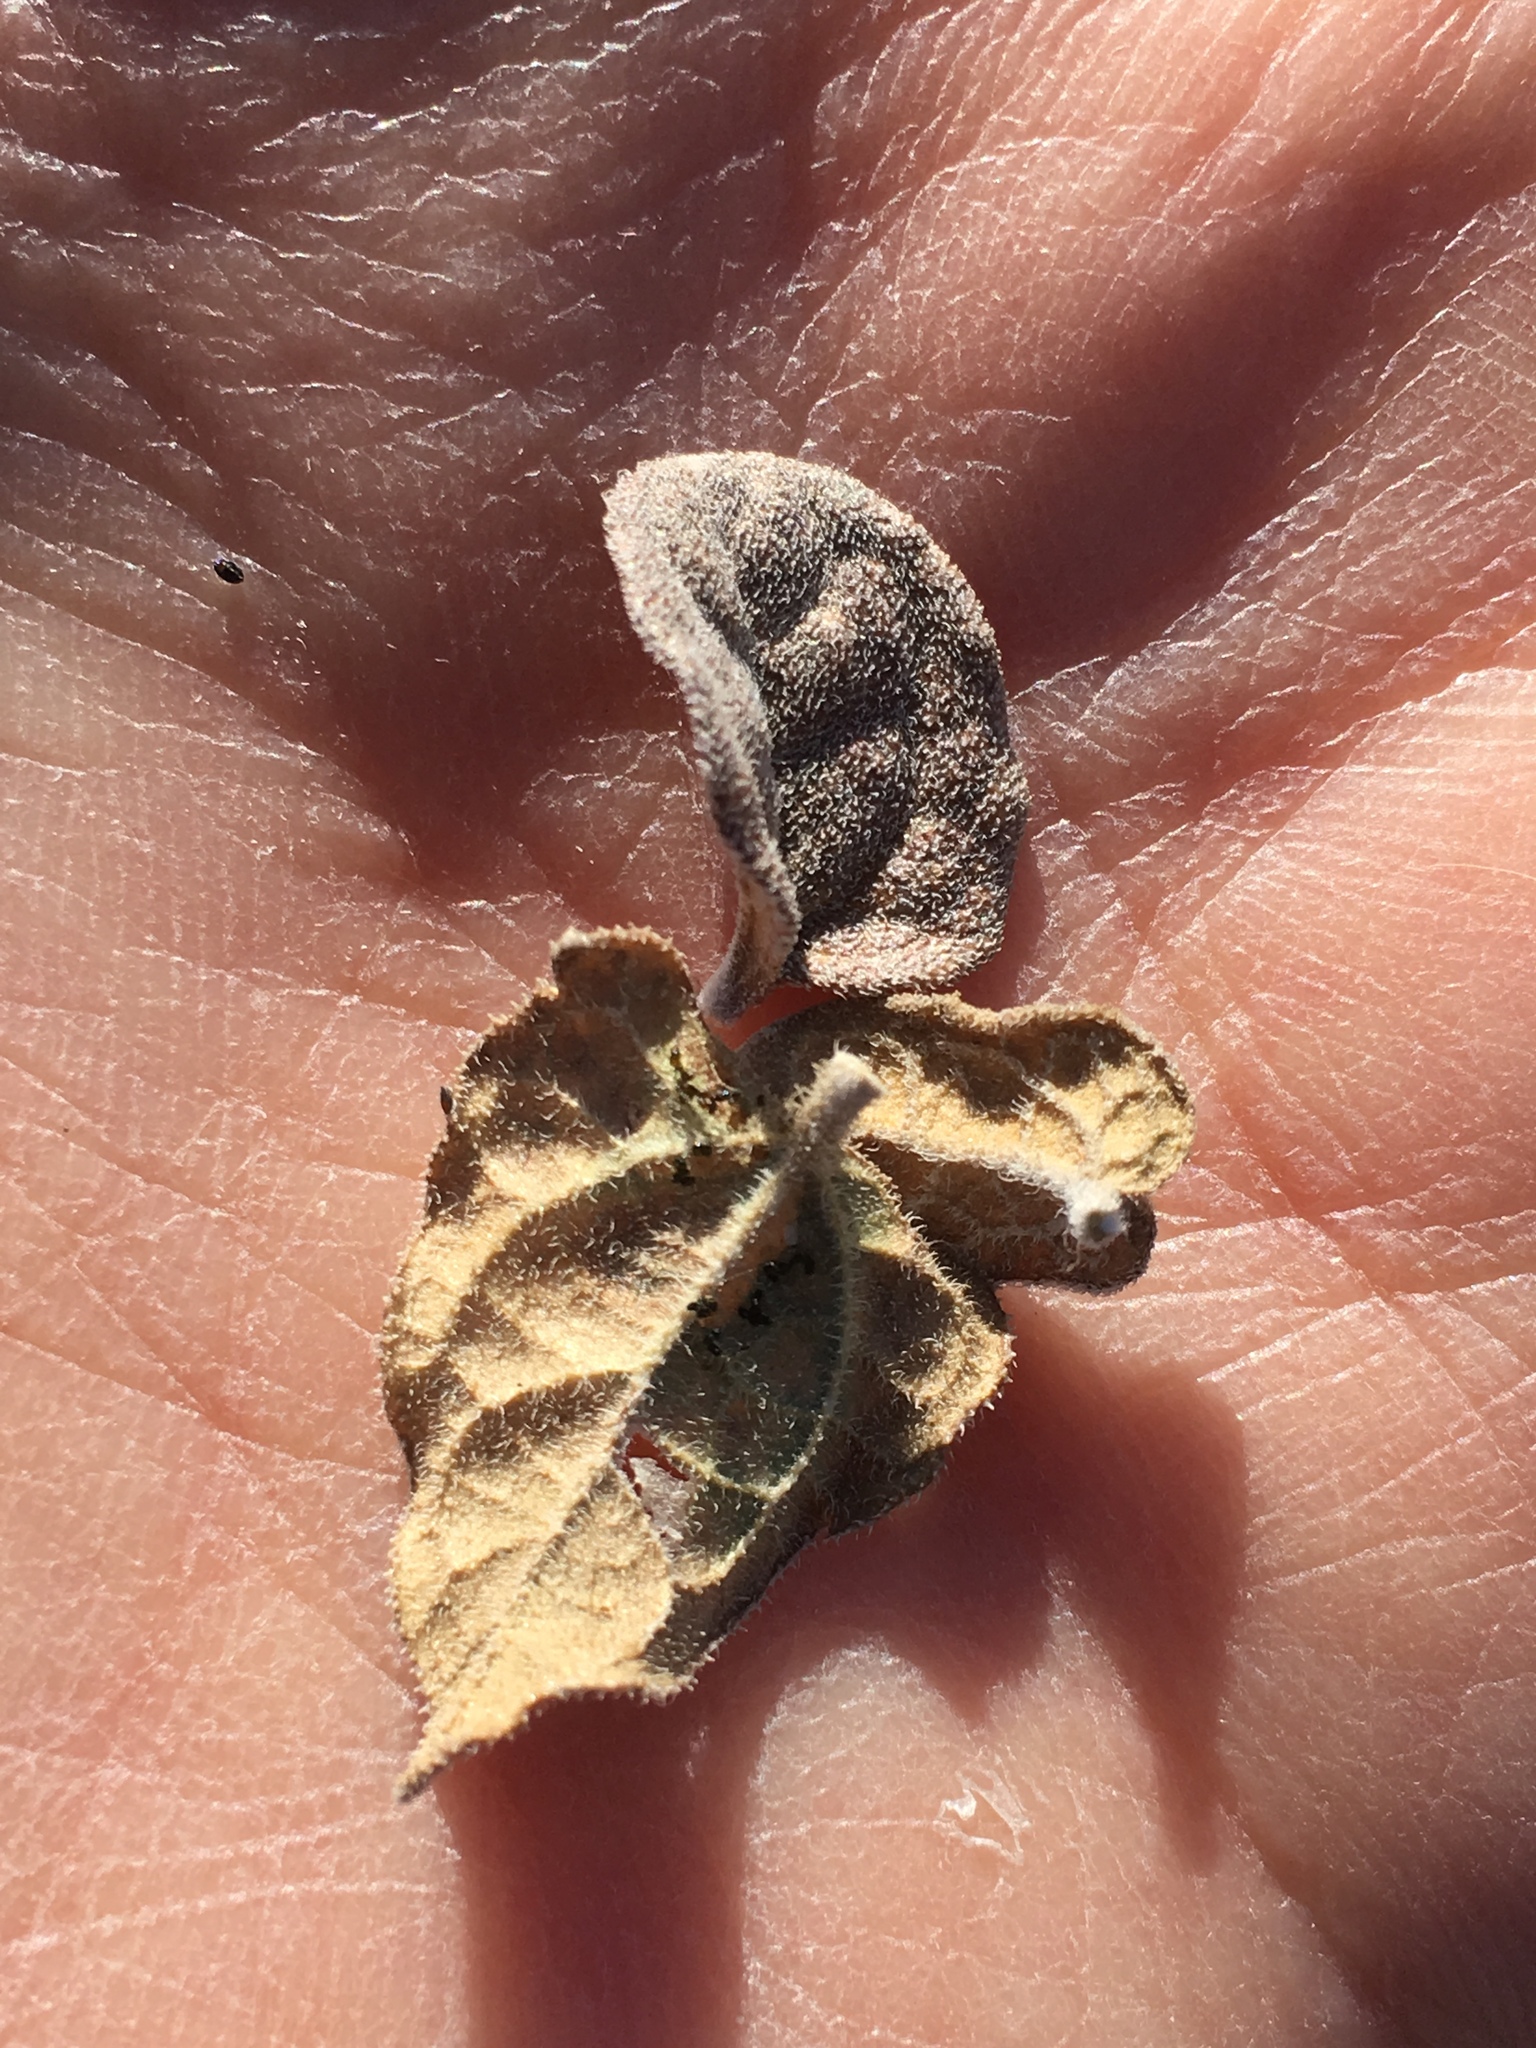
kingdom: Plantae
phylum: Tracheophyta
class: Magnoliopsida
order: Asterales
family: Asteraceae
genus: Bahiopsis
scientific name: Bahiopsis parishii
